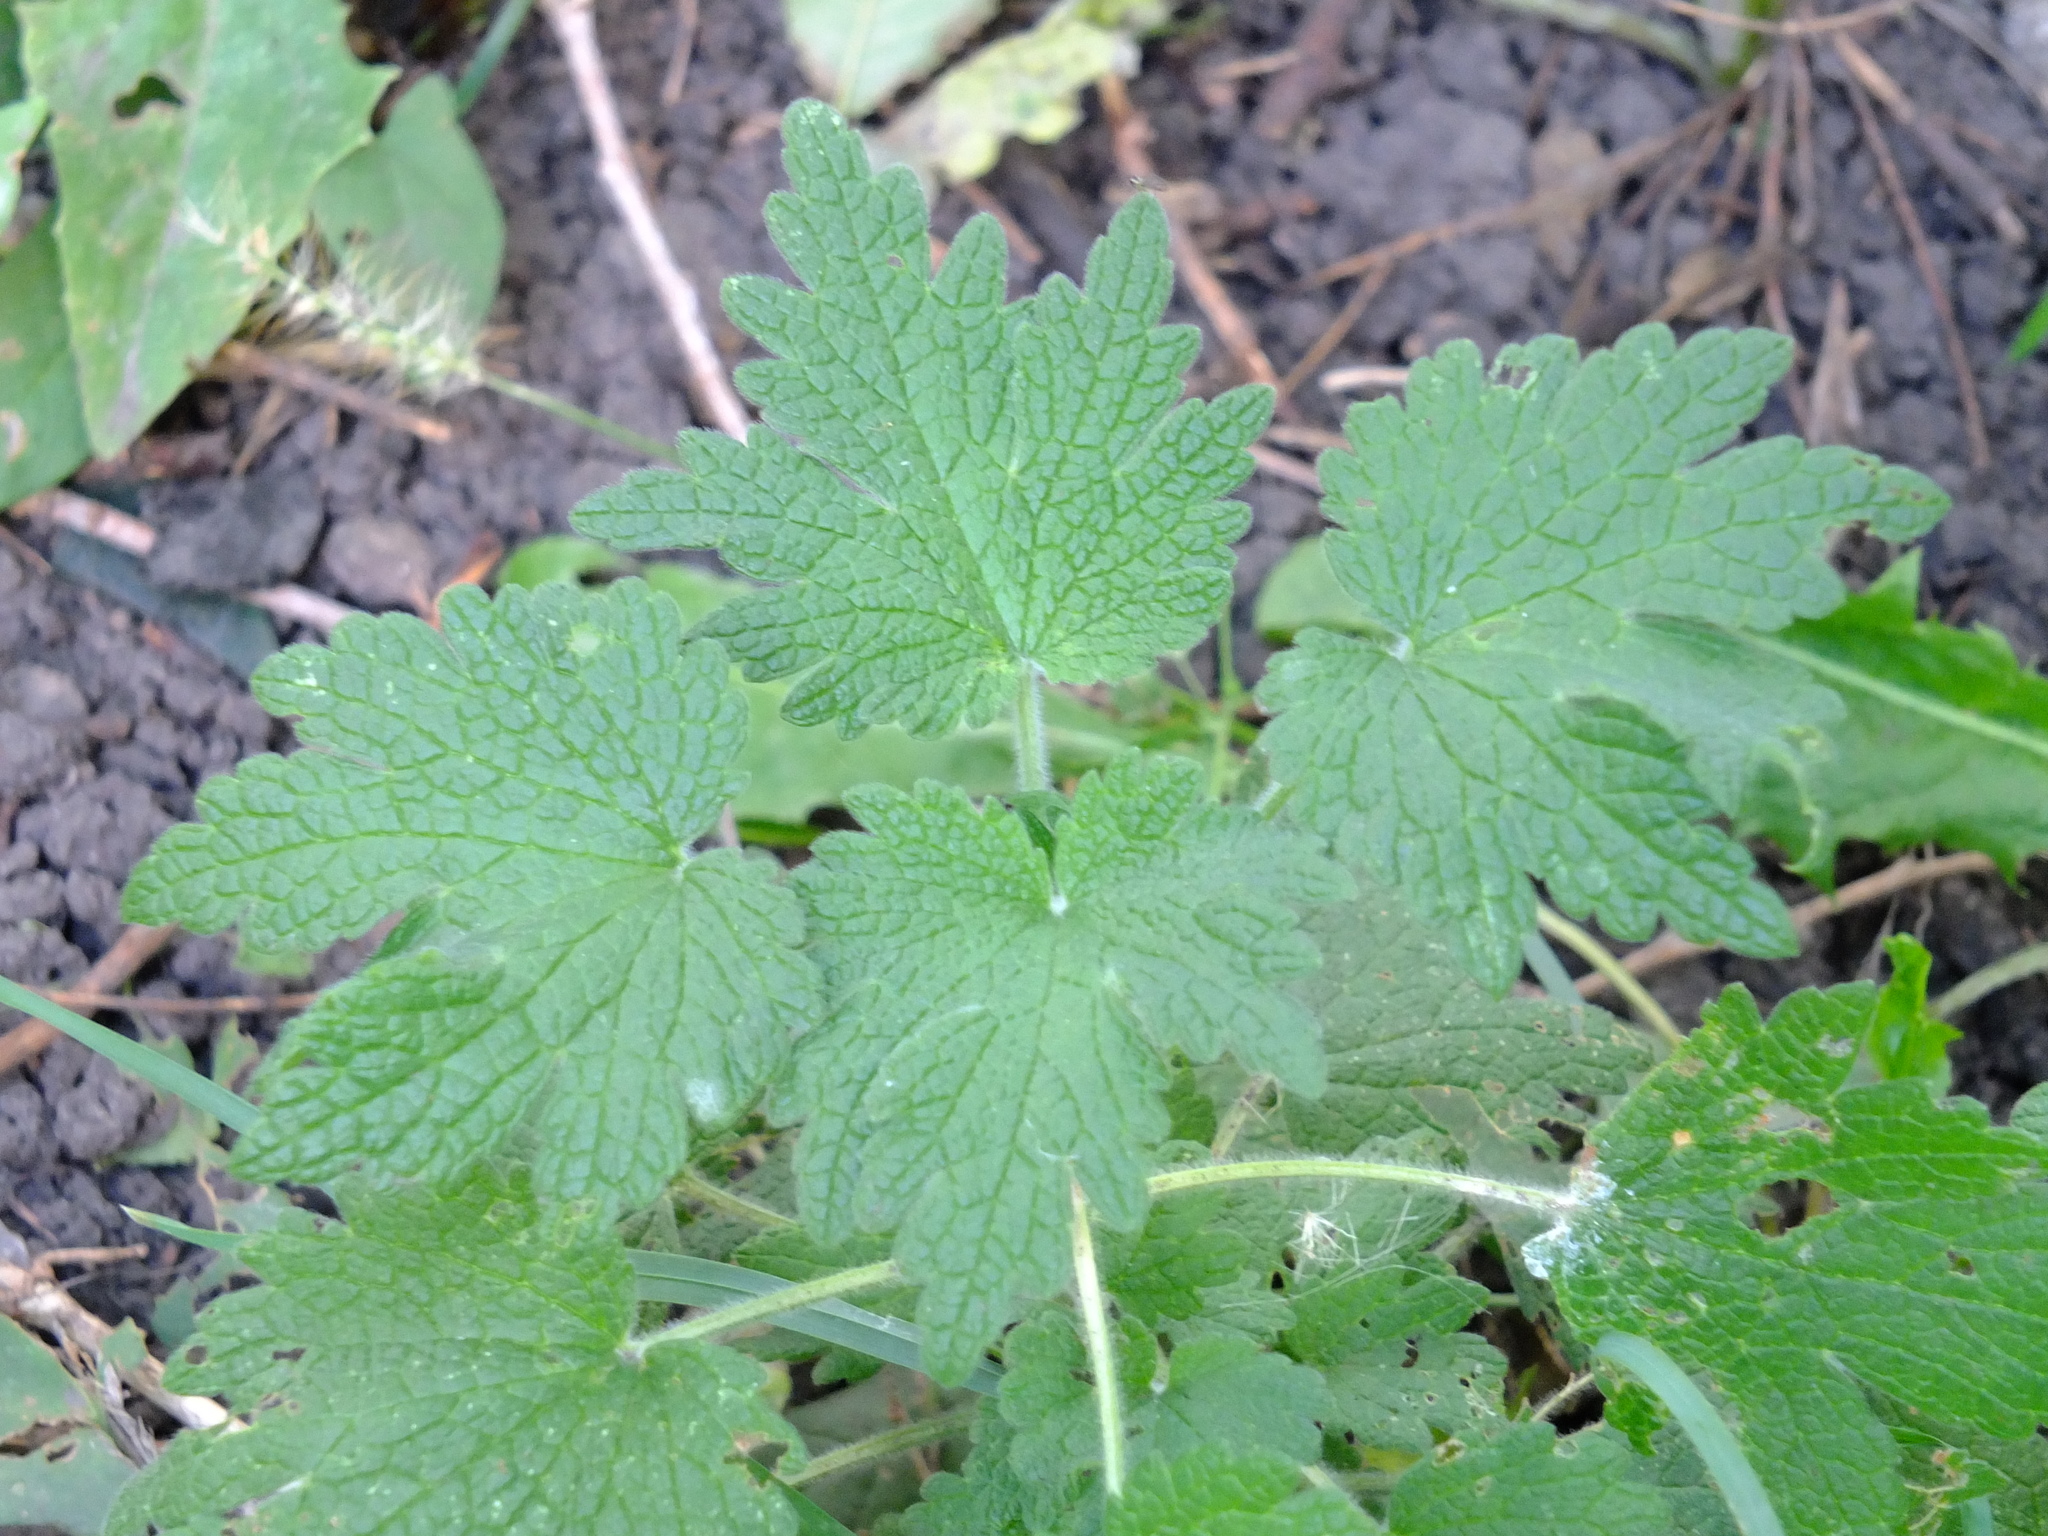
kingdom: Plantae
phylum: Tracheophyta
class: Magnoliopsida
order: Lamiales
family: Lamiaceae
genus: Leonurus
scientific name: Leonurus quinquelobatus
